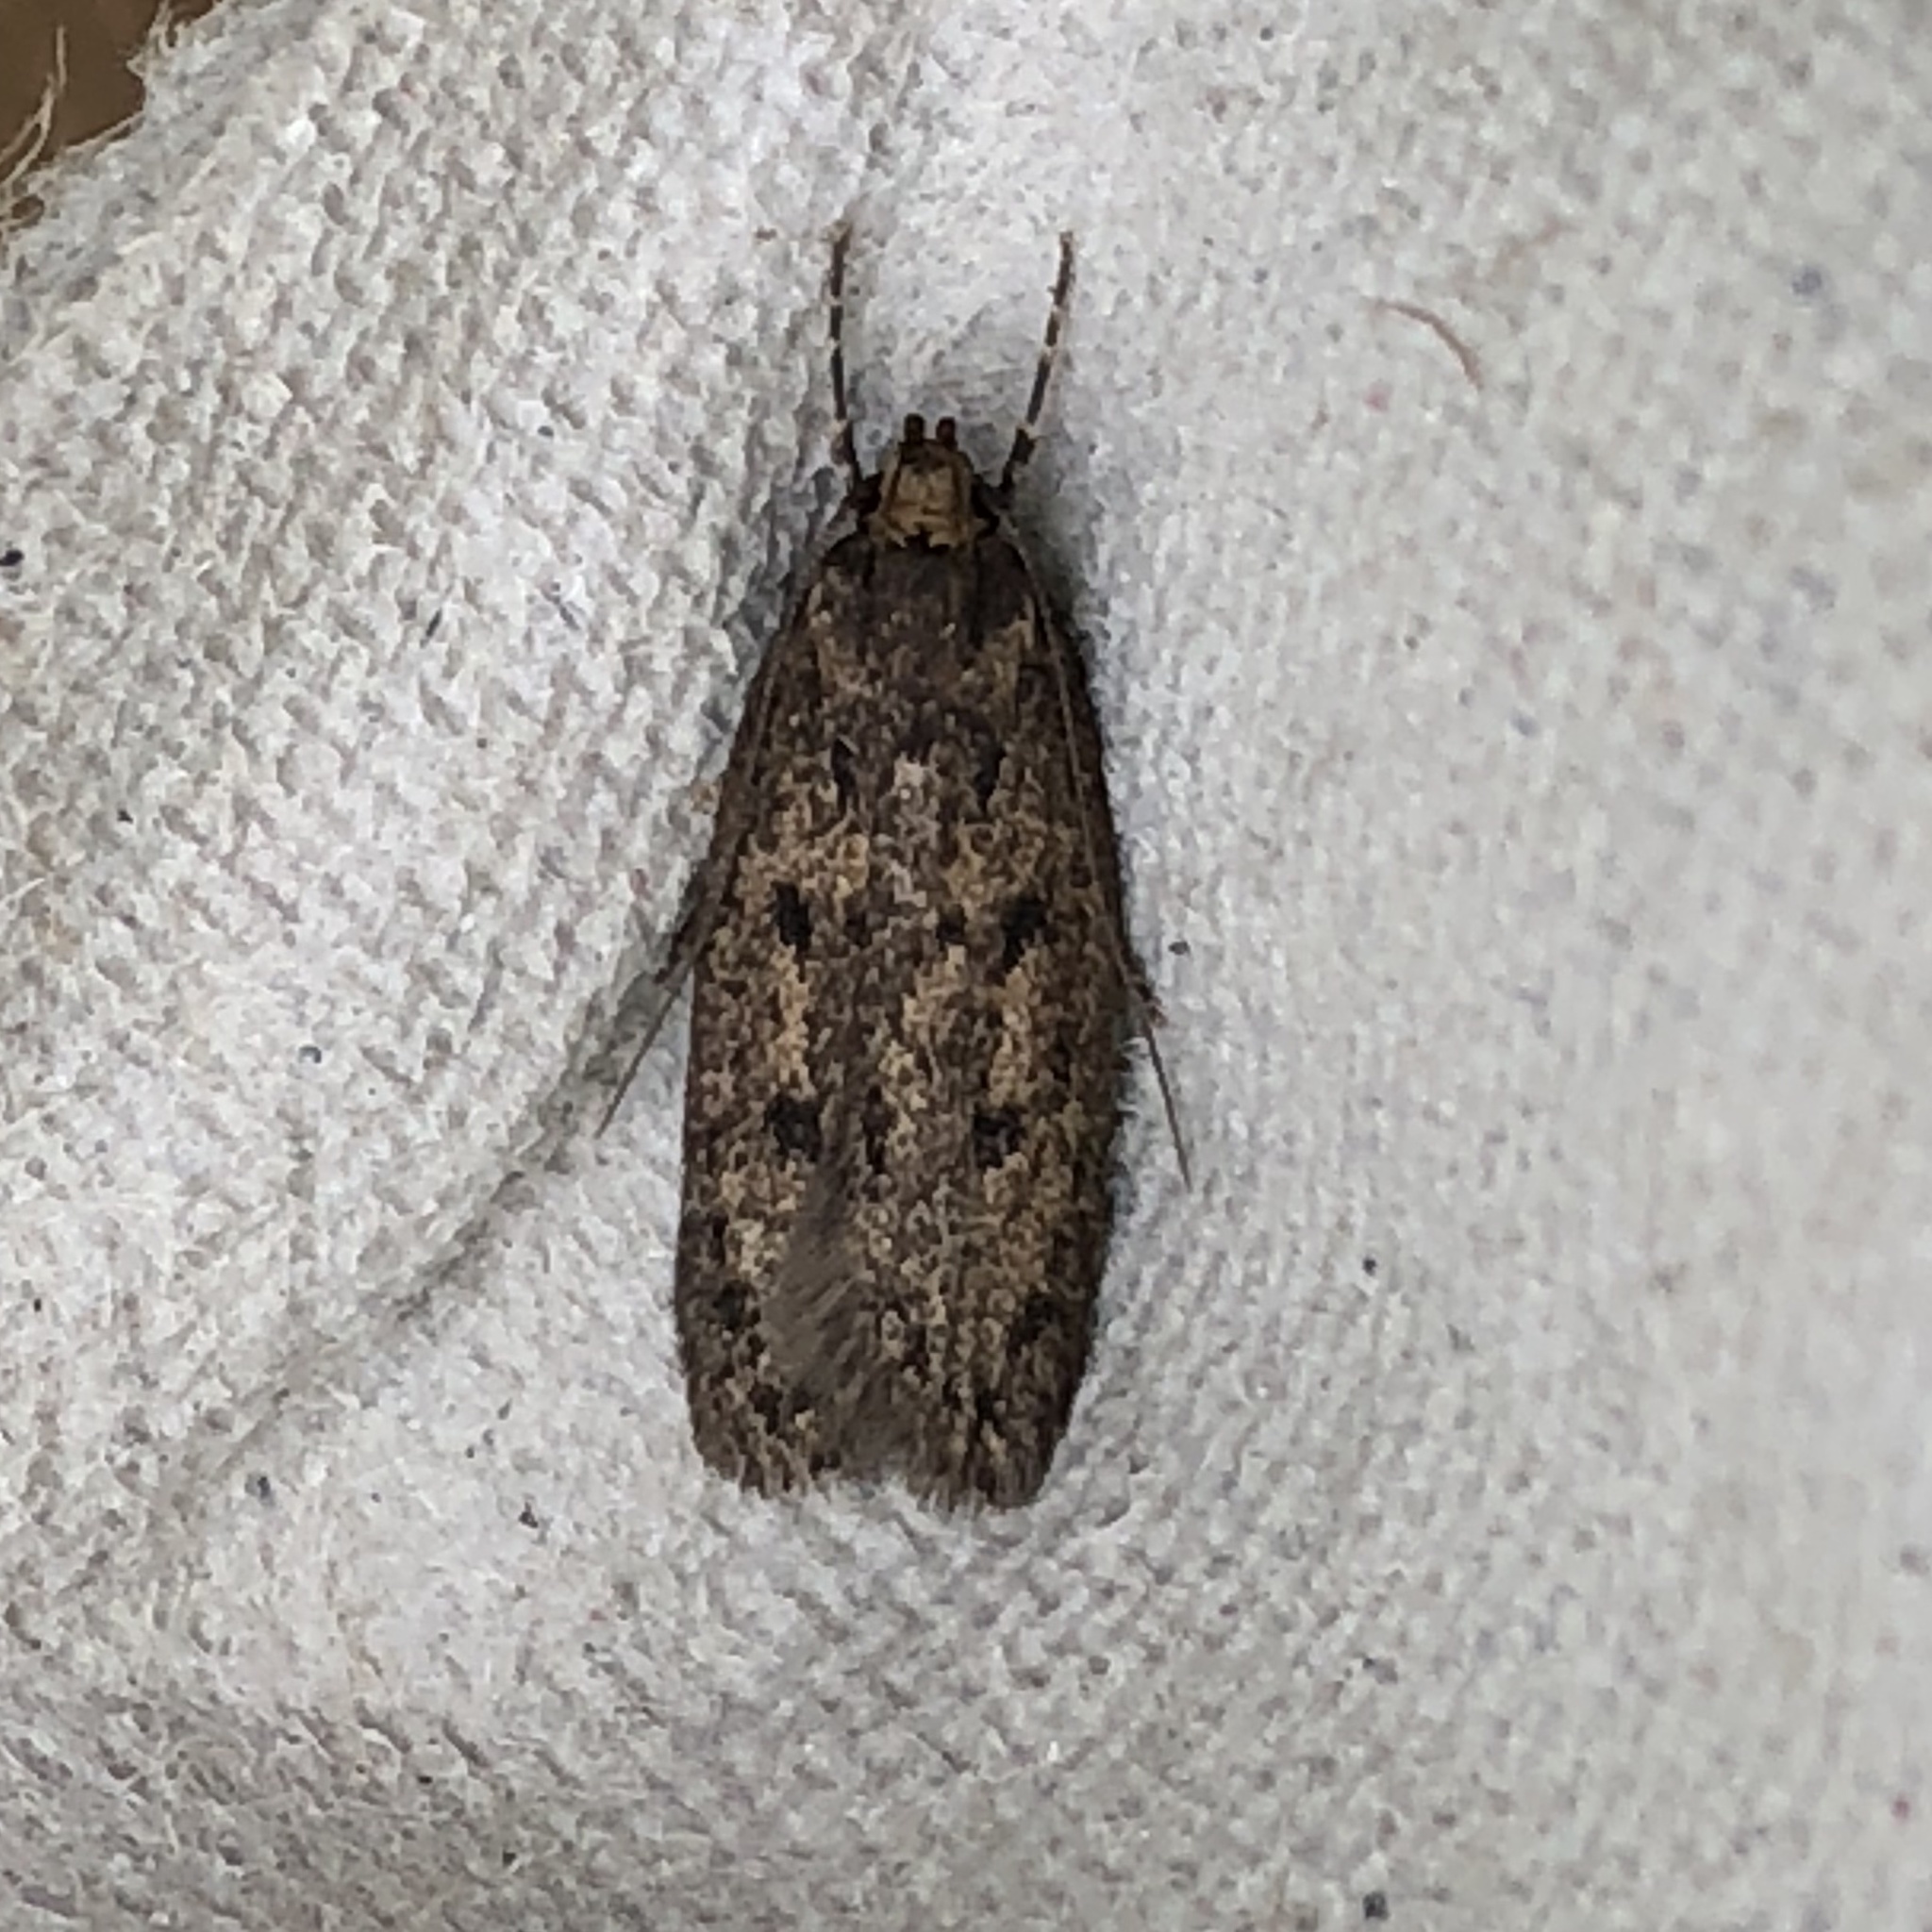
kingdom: Animalia
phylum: Arthropoda
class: Insecta
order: Lepidoptera
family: Oecophoridae
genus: Hofmannophila
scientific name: Hofmannophila pseudospretella
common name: Brown house moth
